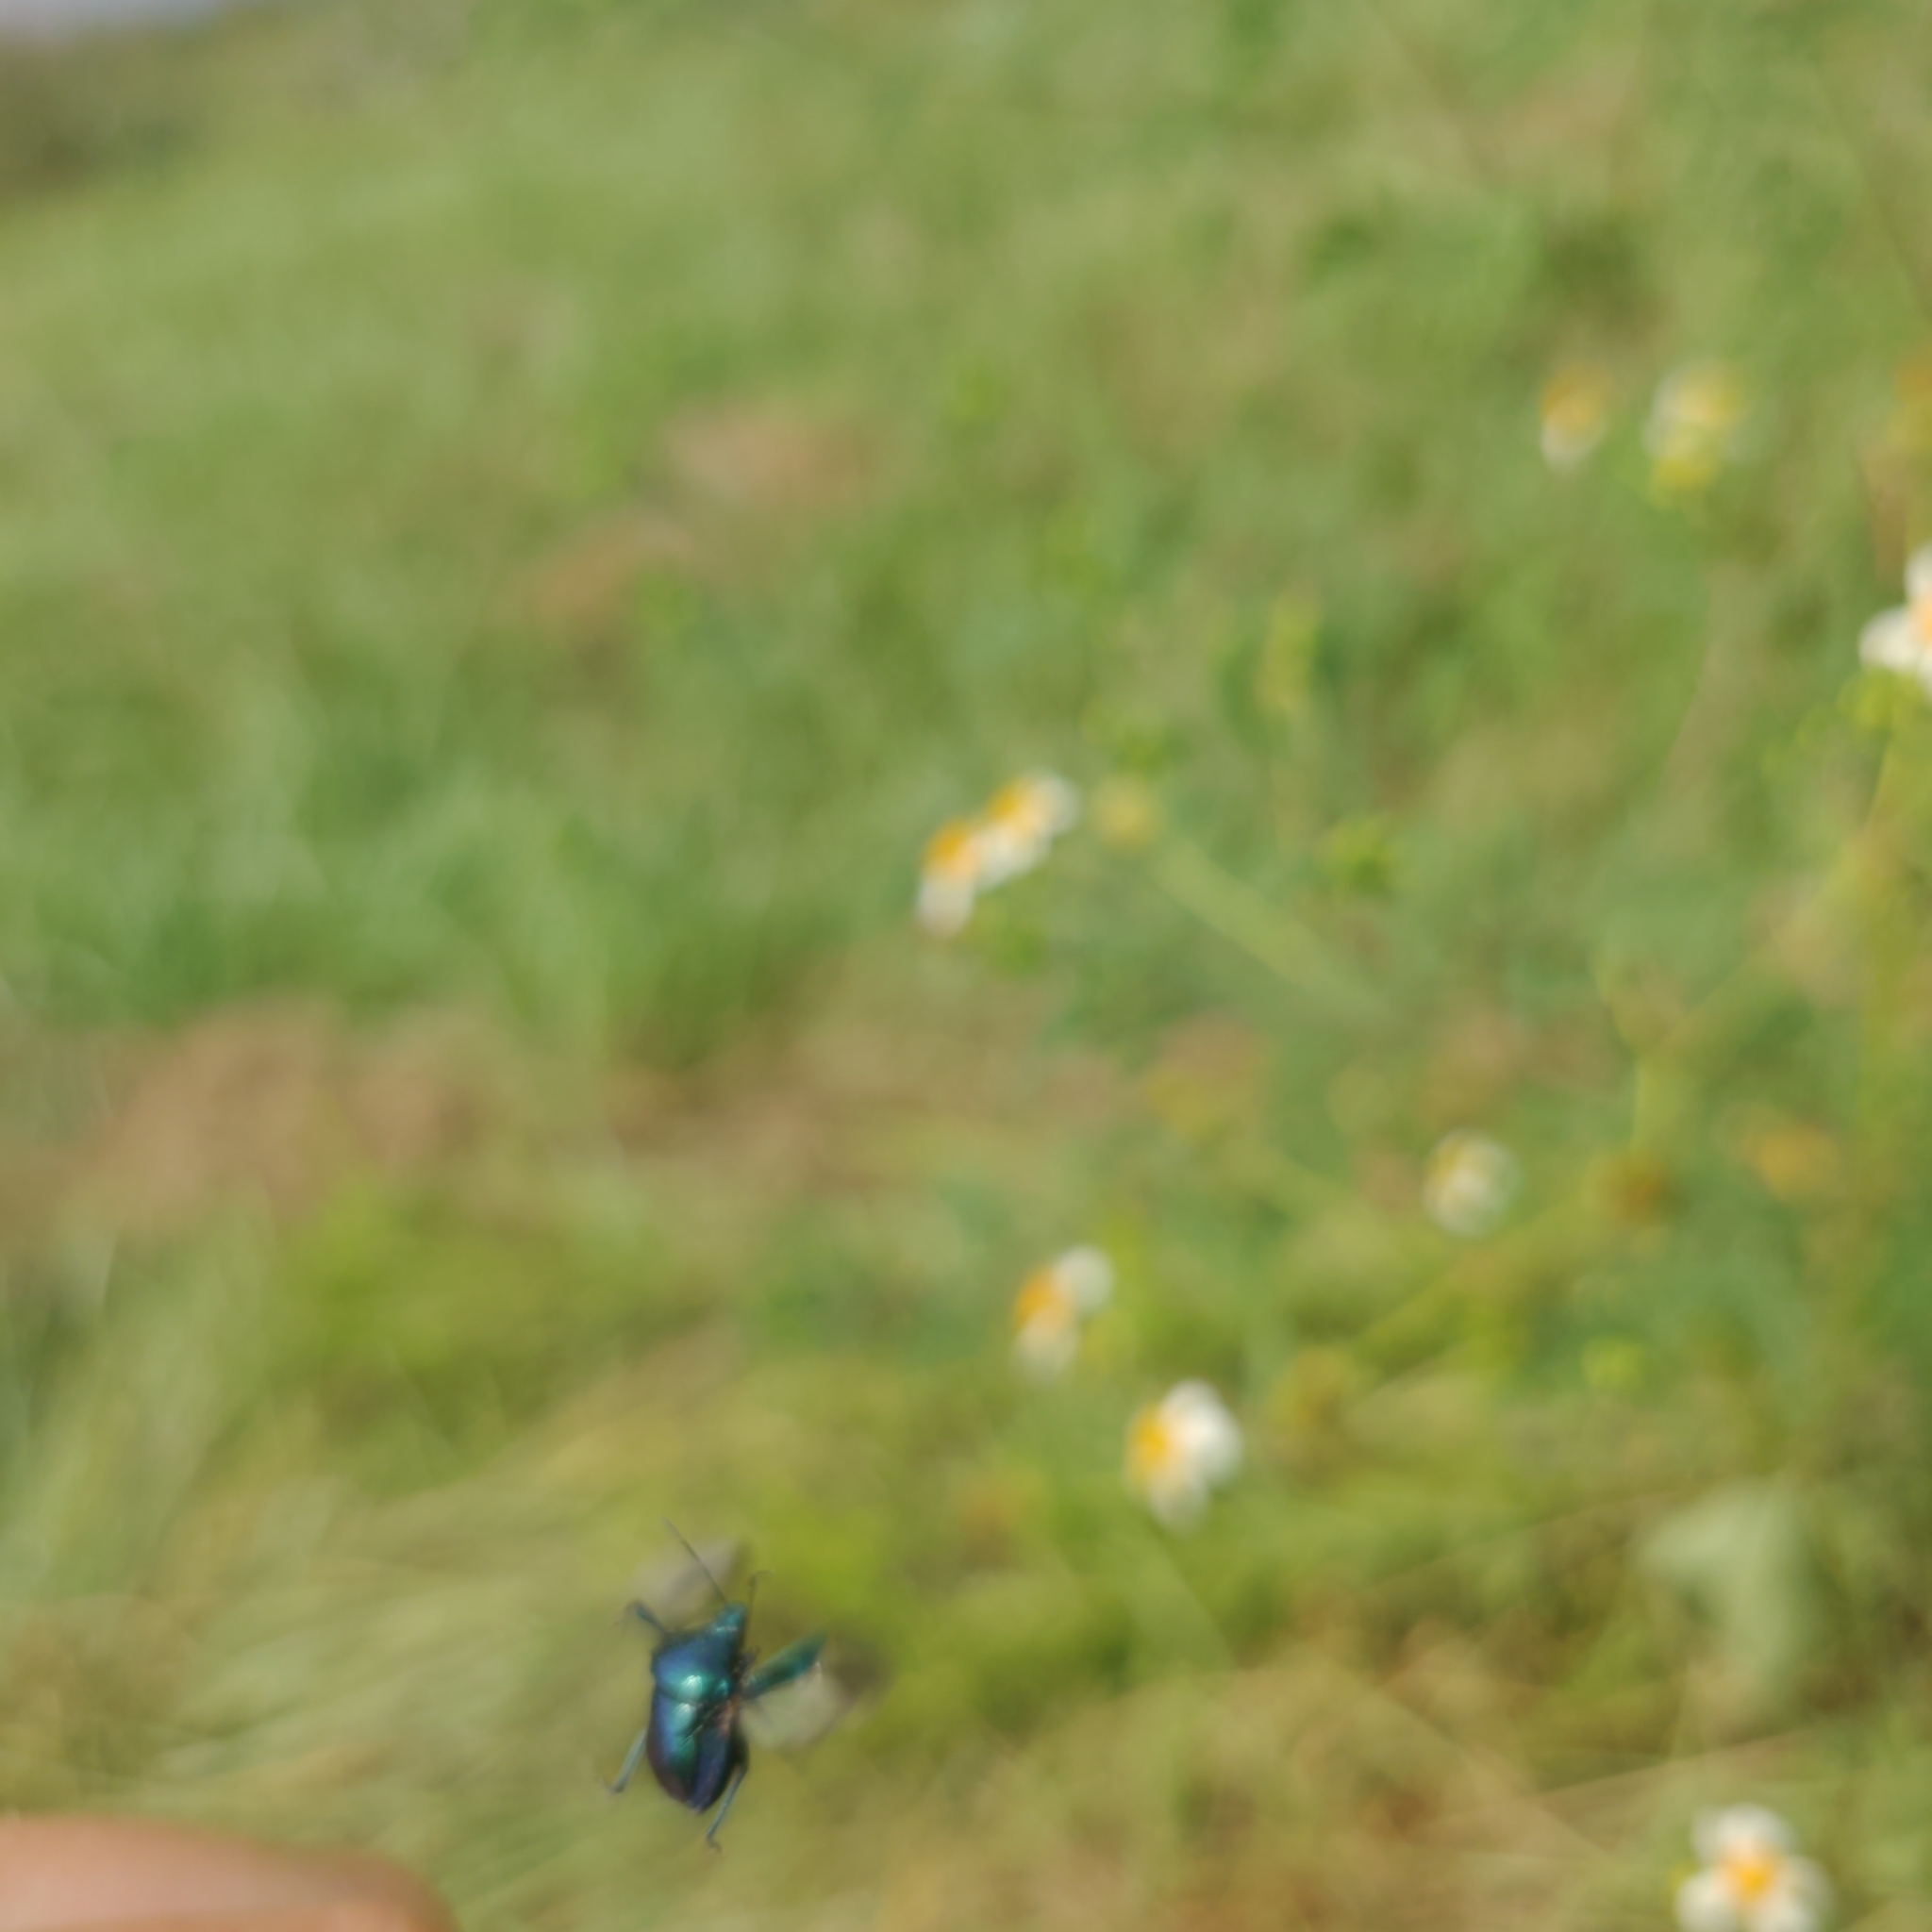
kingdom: Animalia
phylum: Arthropoda
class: Insecta
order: Hemiptera
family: Pentatomidae
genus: Stiretrus
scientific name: Stiretrus anchorago
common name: Anchor stink bug
